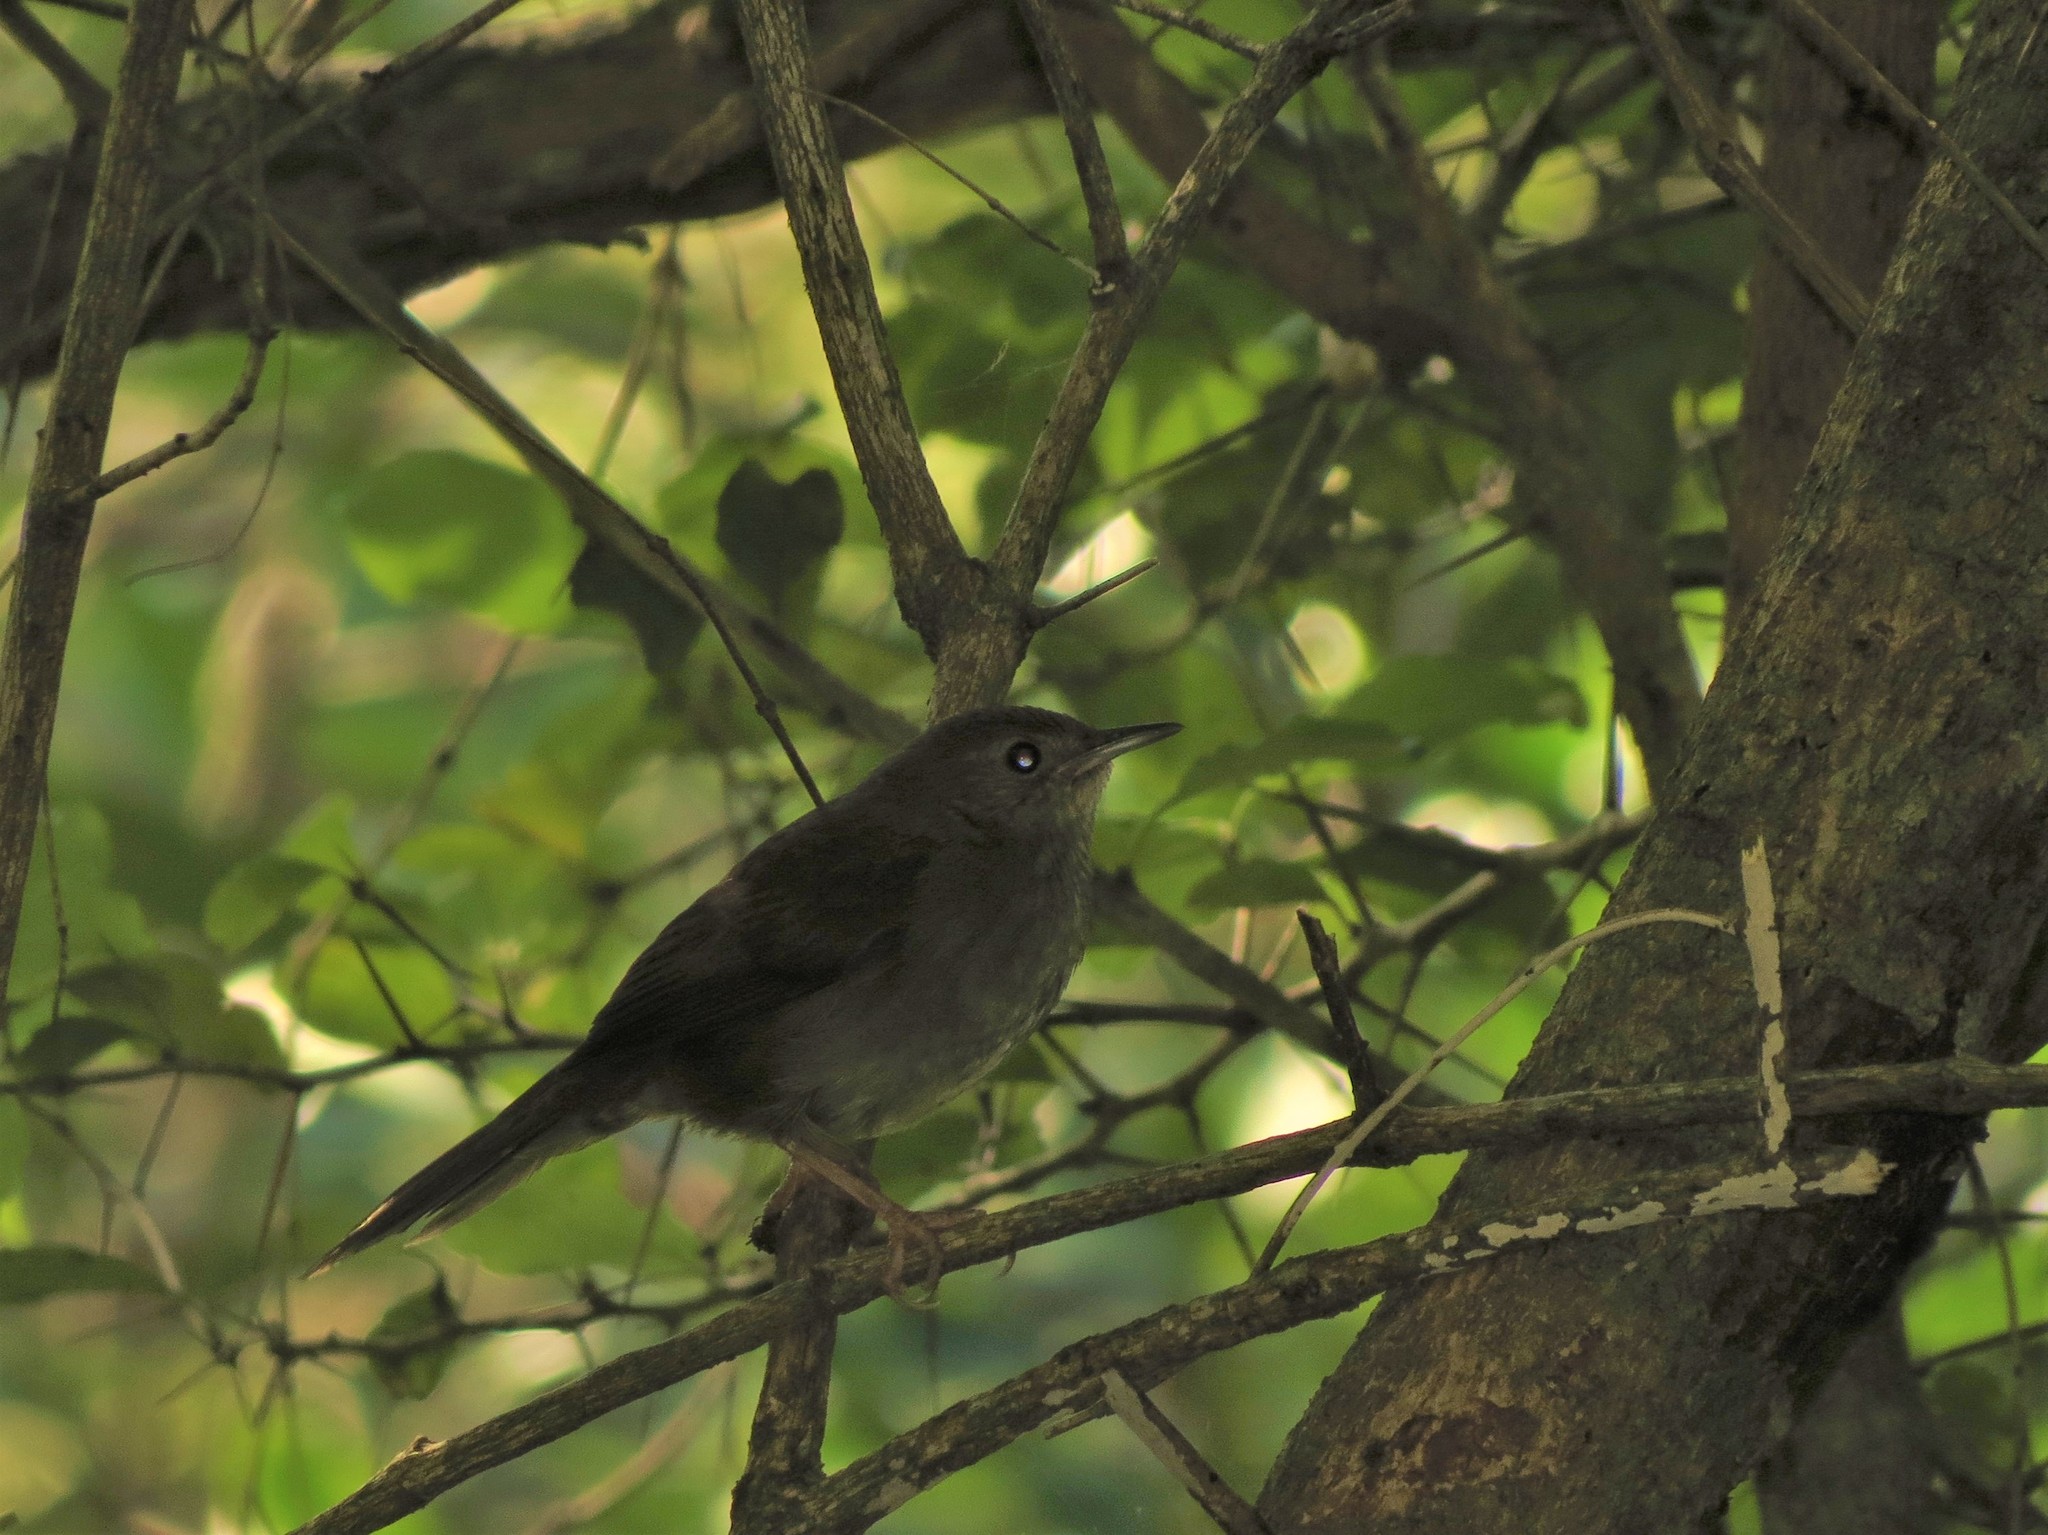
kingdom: Animalia
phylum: Chordata
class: Aves
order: Passeriformes
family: Locustellidae
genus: Bradypterus
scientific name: Bradypterus sylvaticus
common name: Knysna warbler
